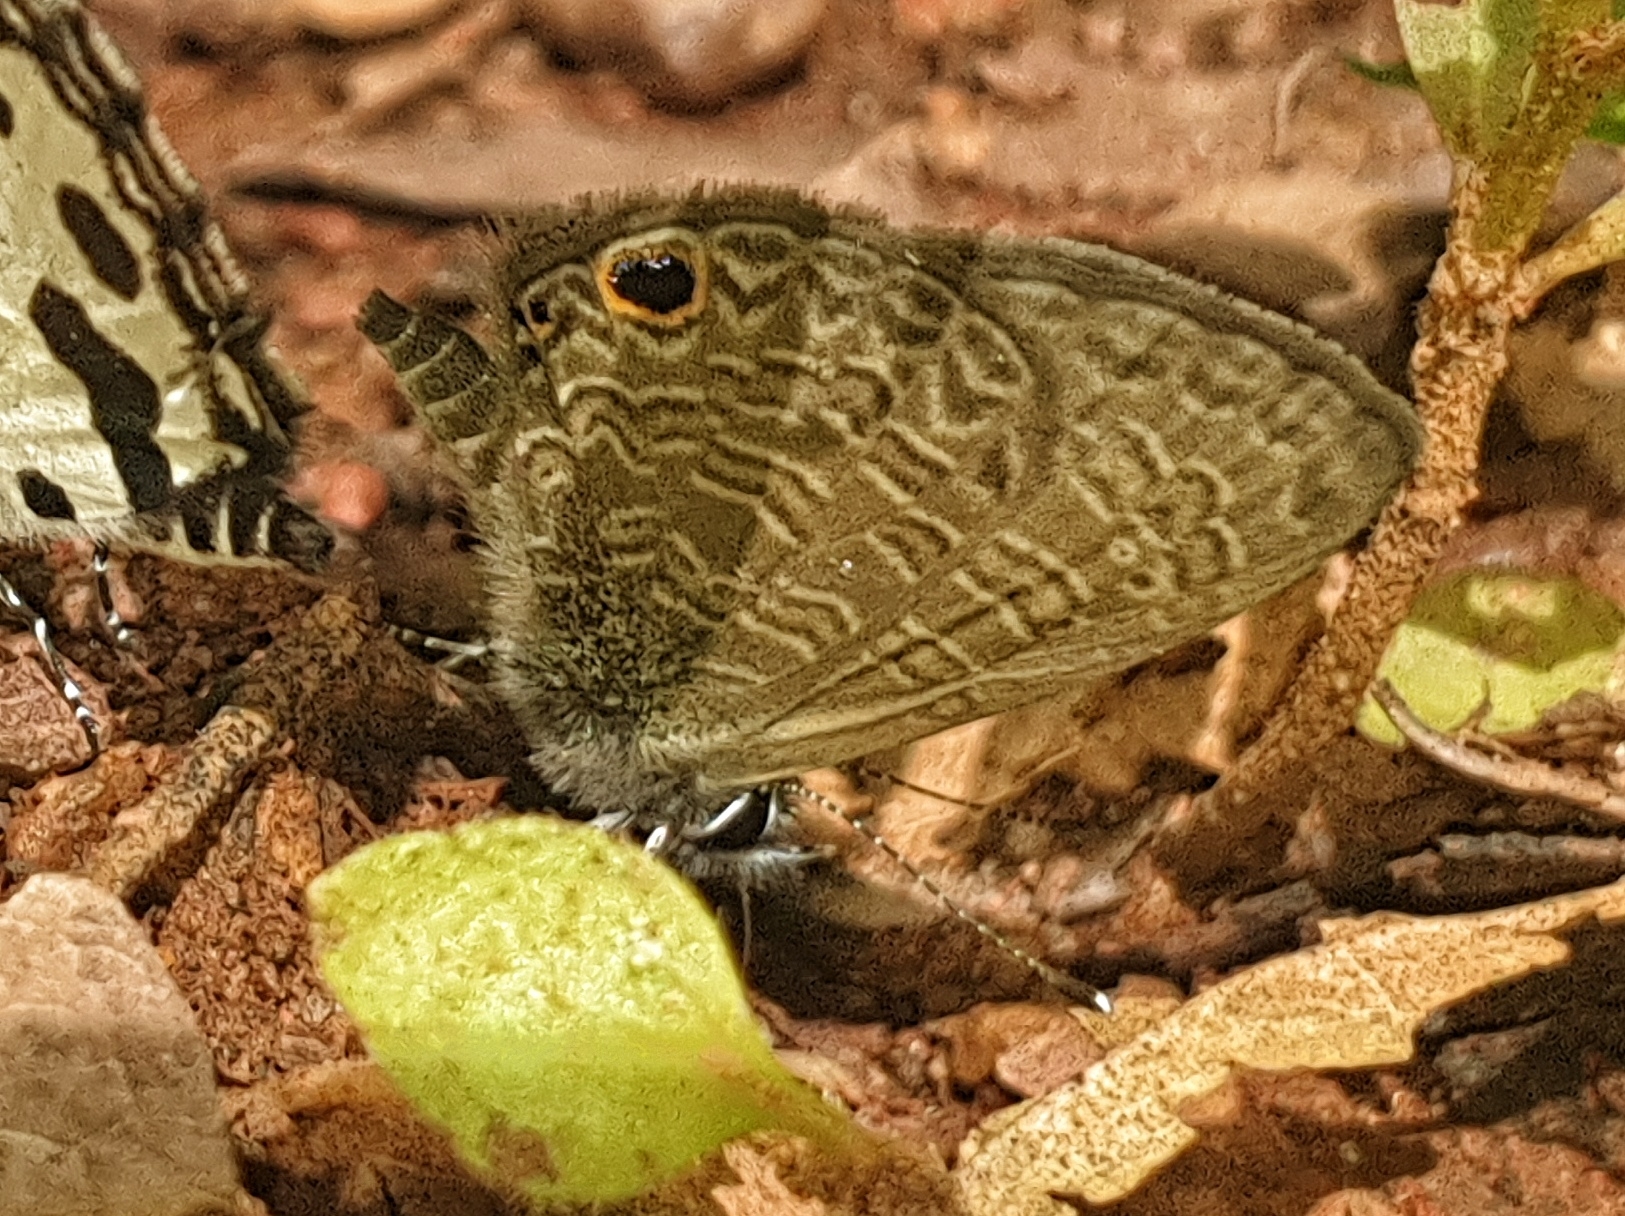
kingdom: Animalia
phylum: Arthropoda
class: Insecta
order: Lepidoptera
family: Lycaenidae
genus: Prosotas
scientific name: Prosotas dubiosa
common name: Tailless lineblue
